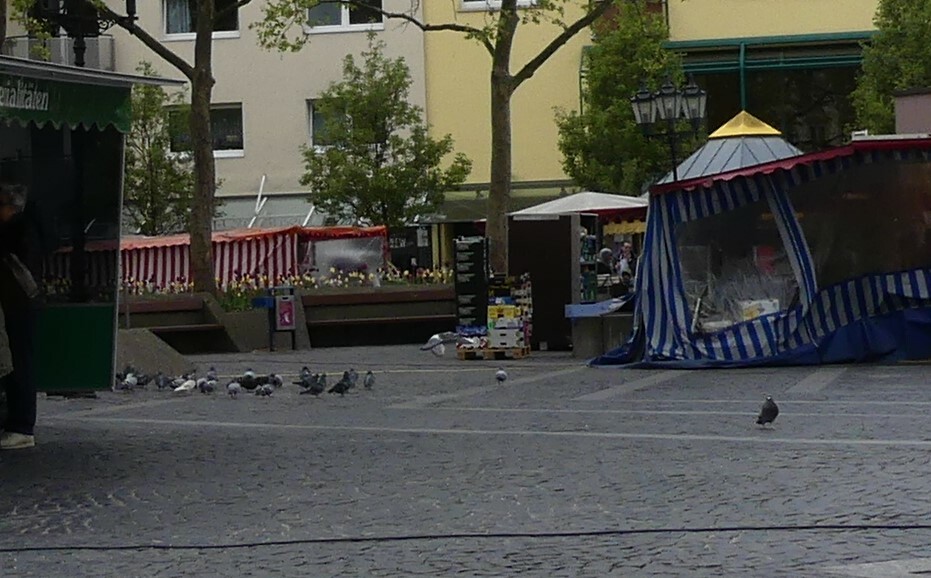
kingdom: Animalia
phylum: Chordata
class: Aves
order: Columbiformes
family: Columbidae
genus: Columba
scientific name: Columba livia
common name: Rock pigeon
